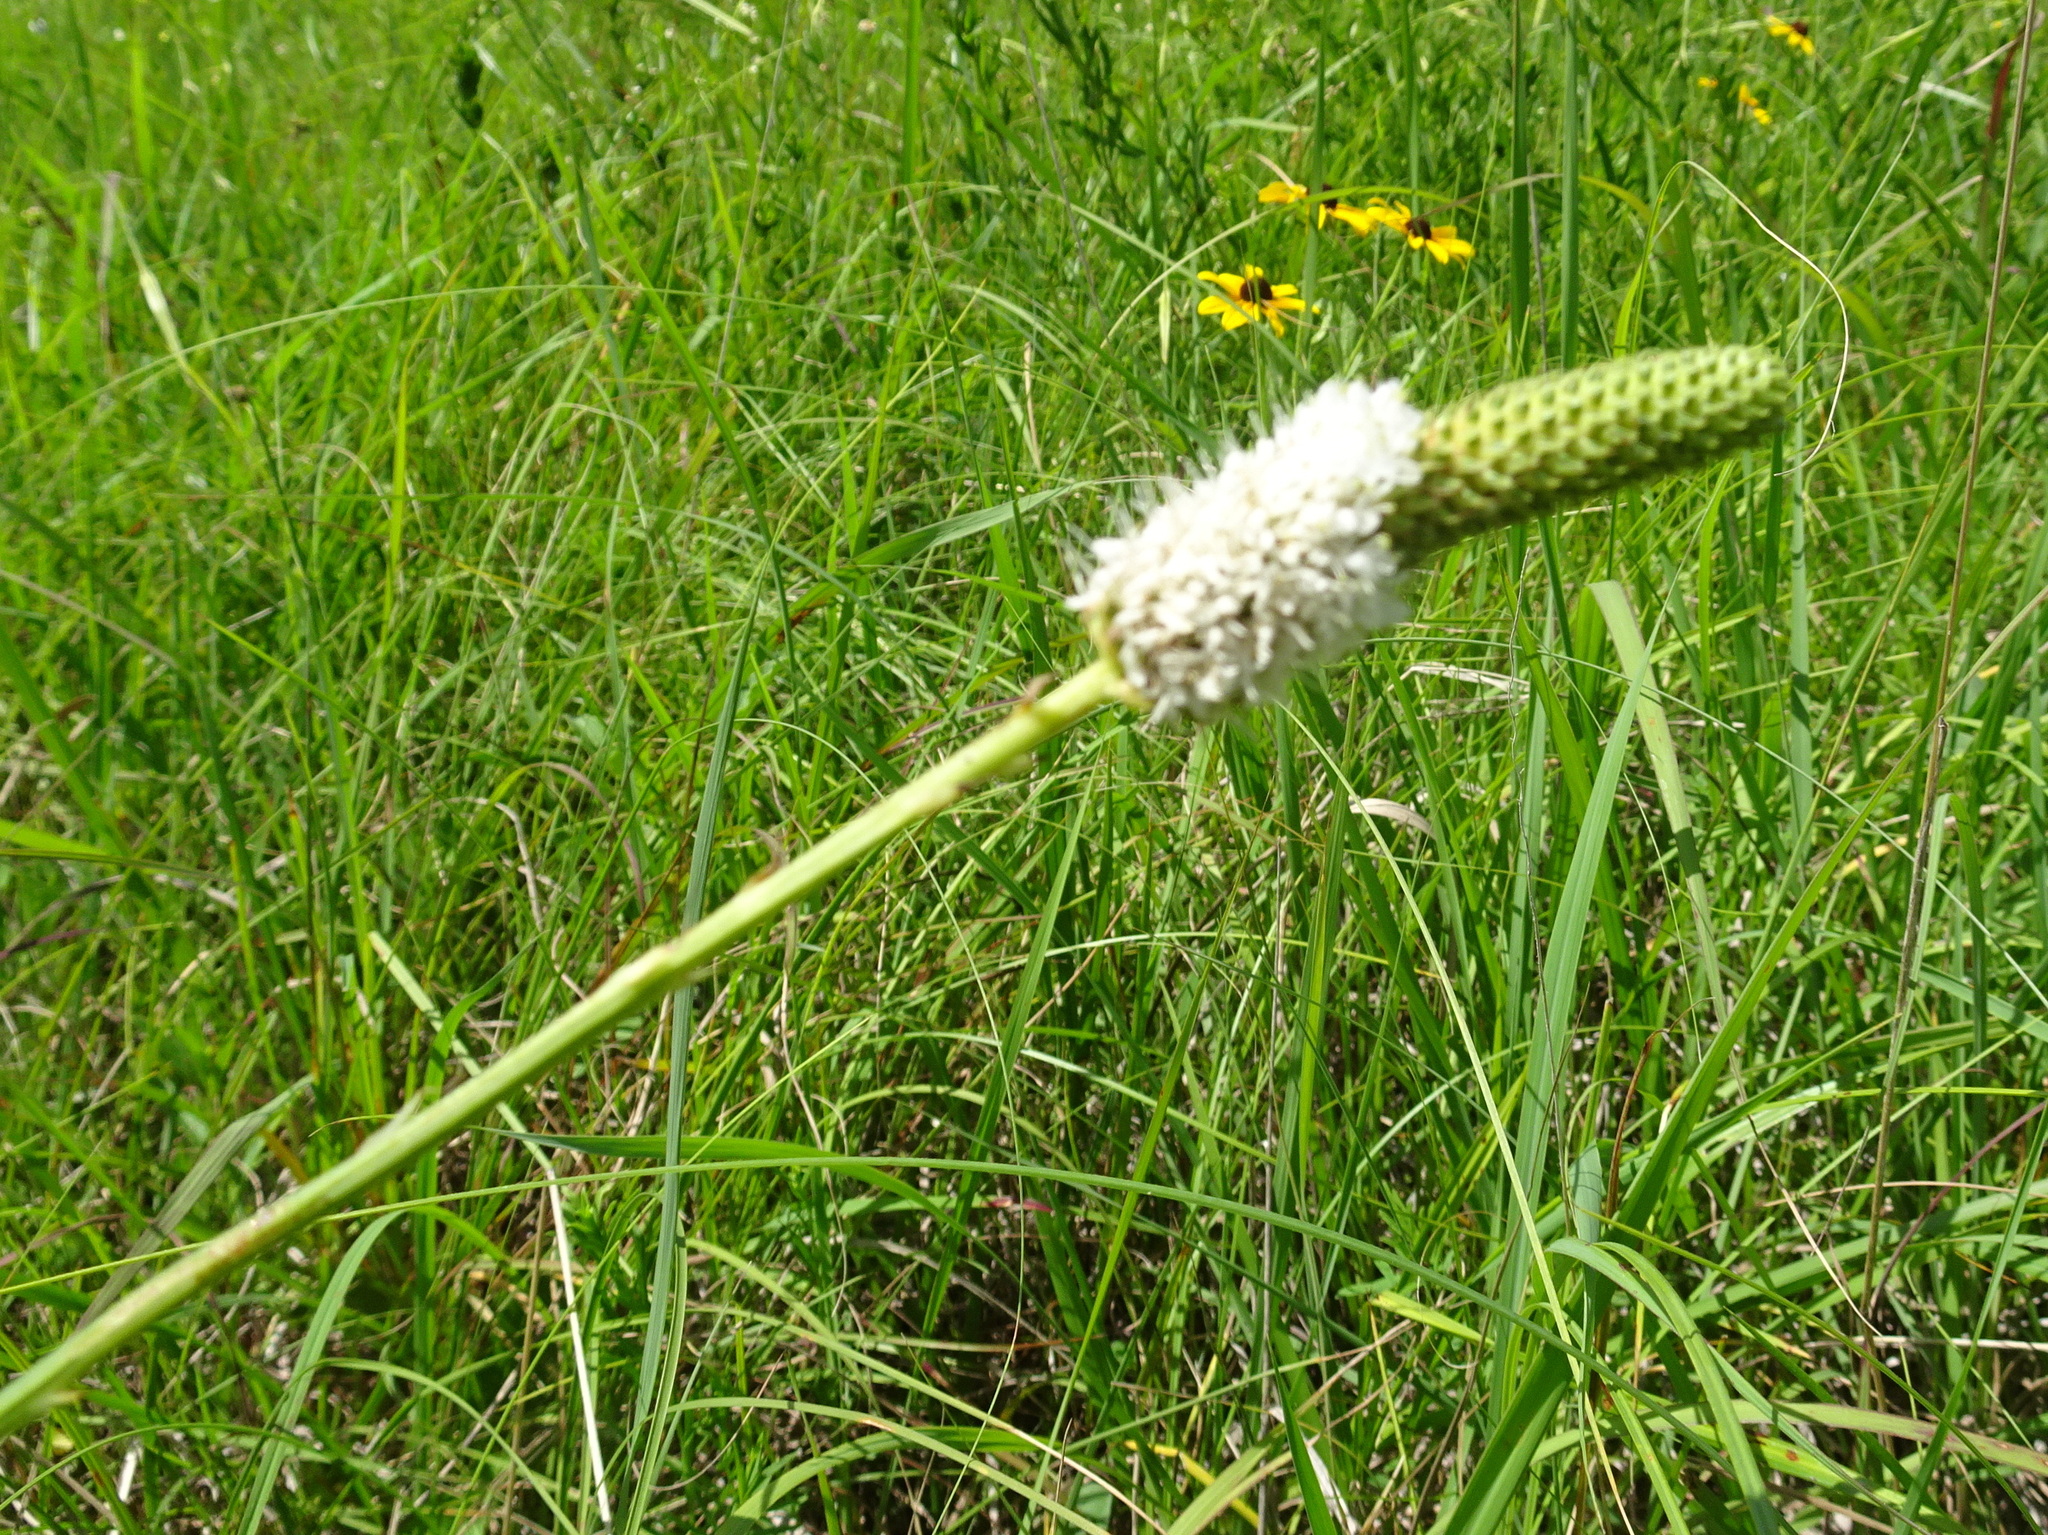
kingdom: Plantae
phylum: Tracheophyta
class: Magnoliopsida
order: Fabales
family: Fabaceae
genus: Dalea
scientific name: Dalea candida
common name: White prairie-clover
